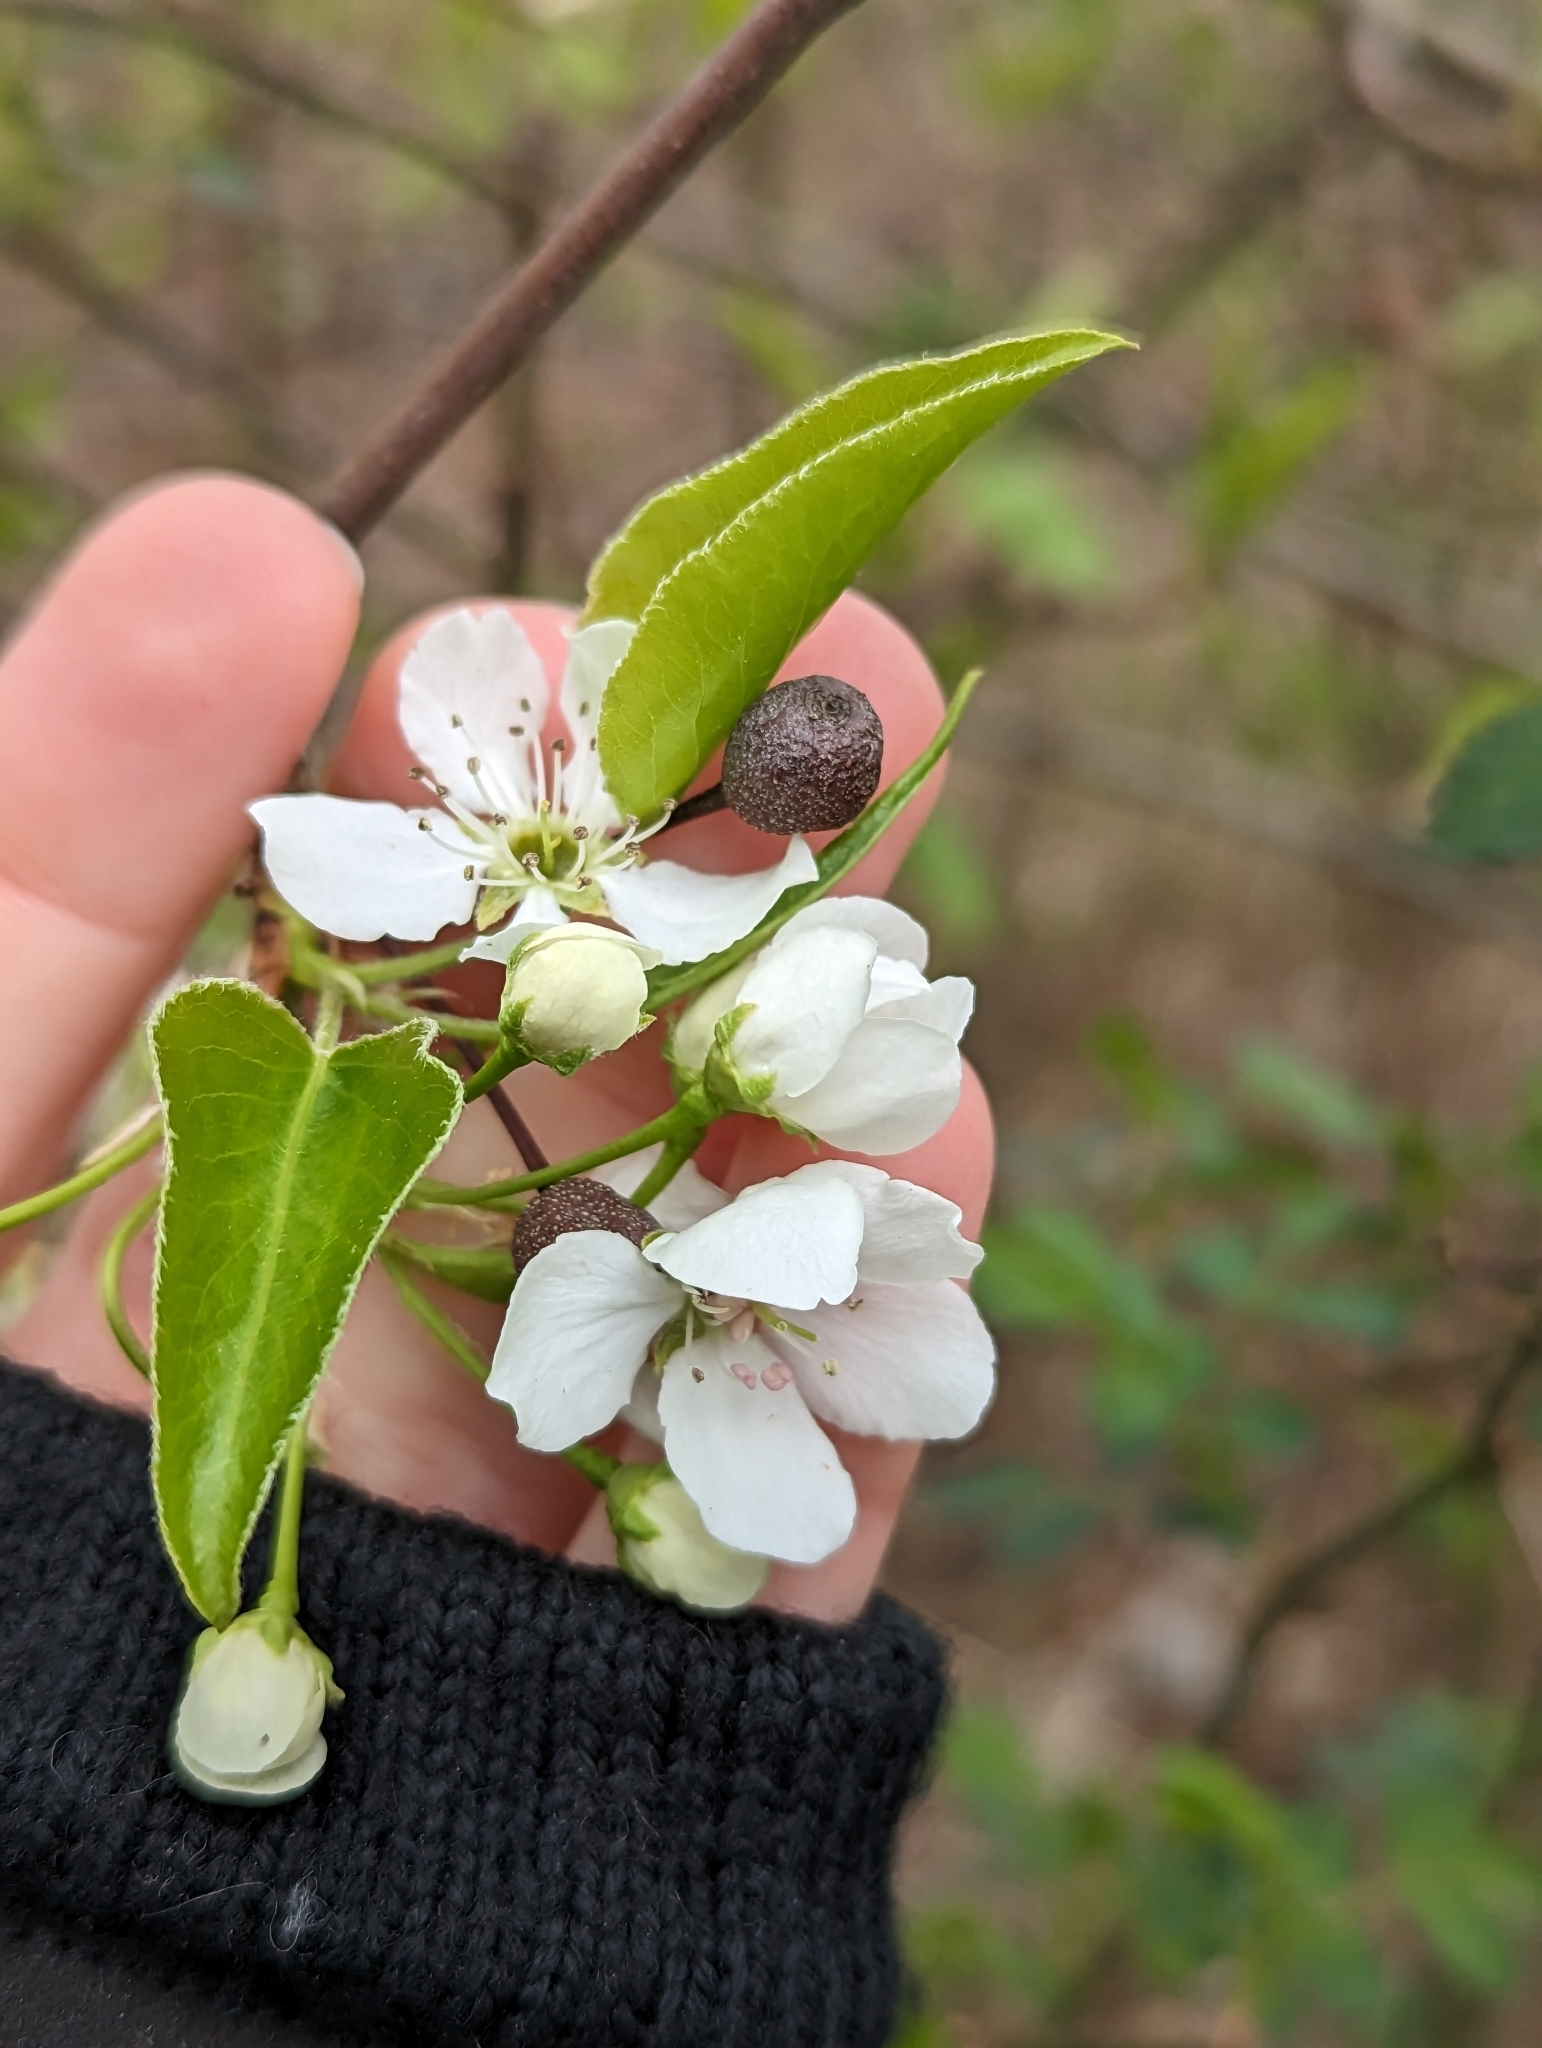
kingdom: Plantae
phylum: Tracheophyta
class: Magnoliopsida
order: Rosales
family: Rosaceae
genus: Pyrus
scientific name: Pyrus calleryana
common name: Callery pear
